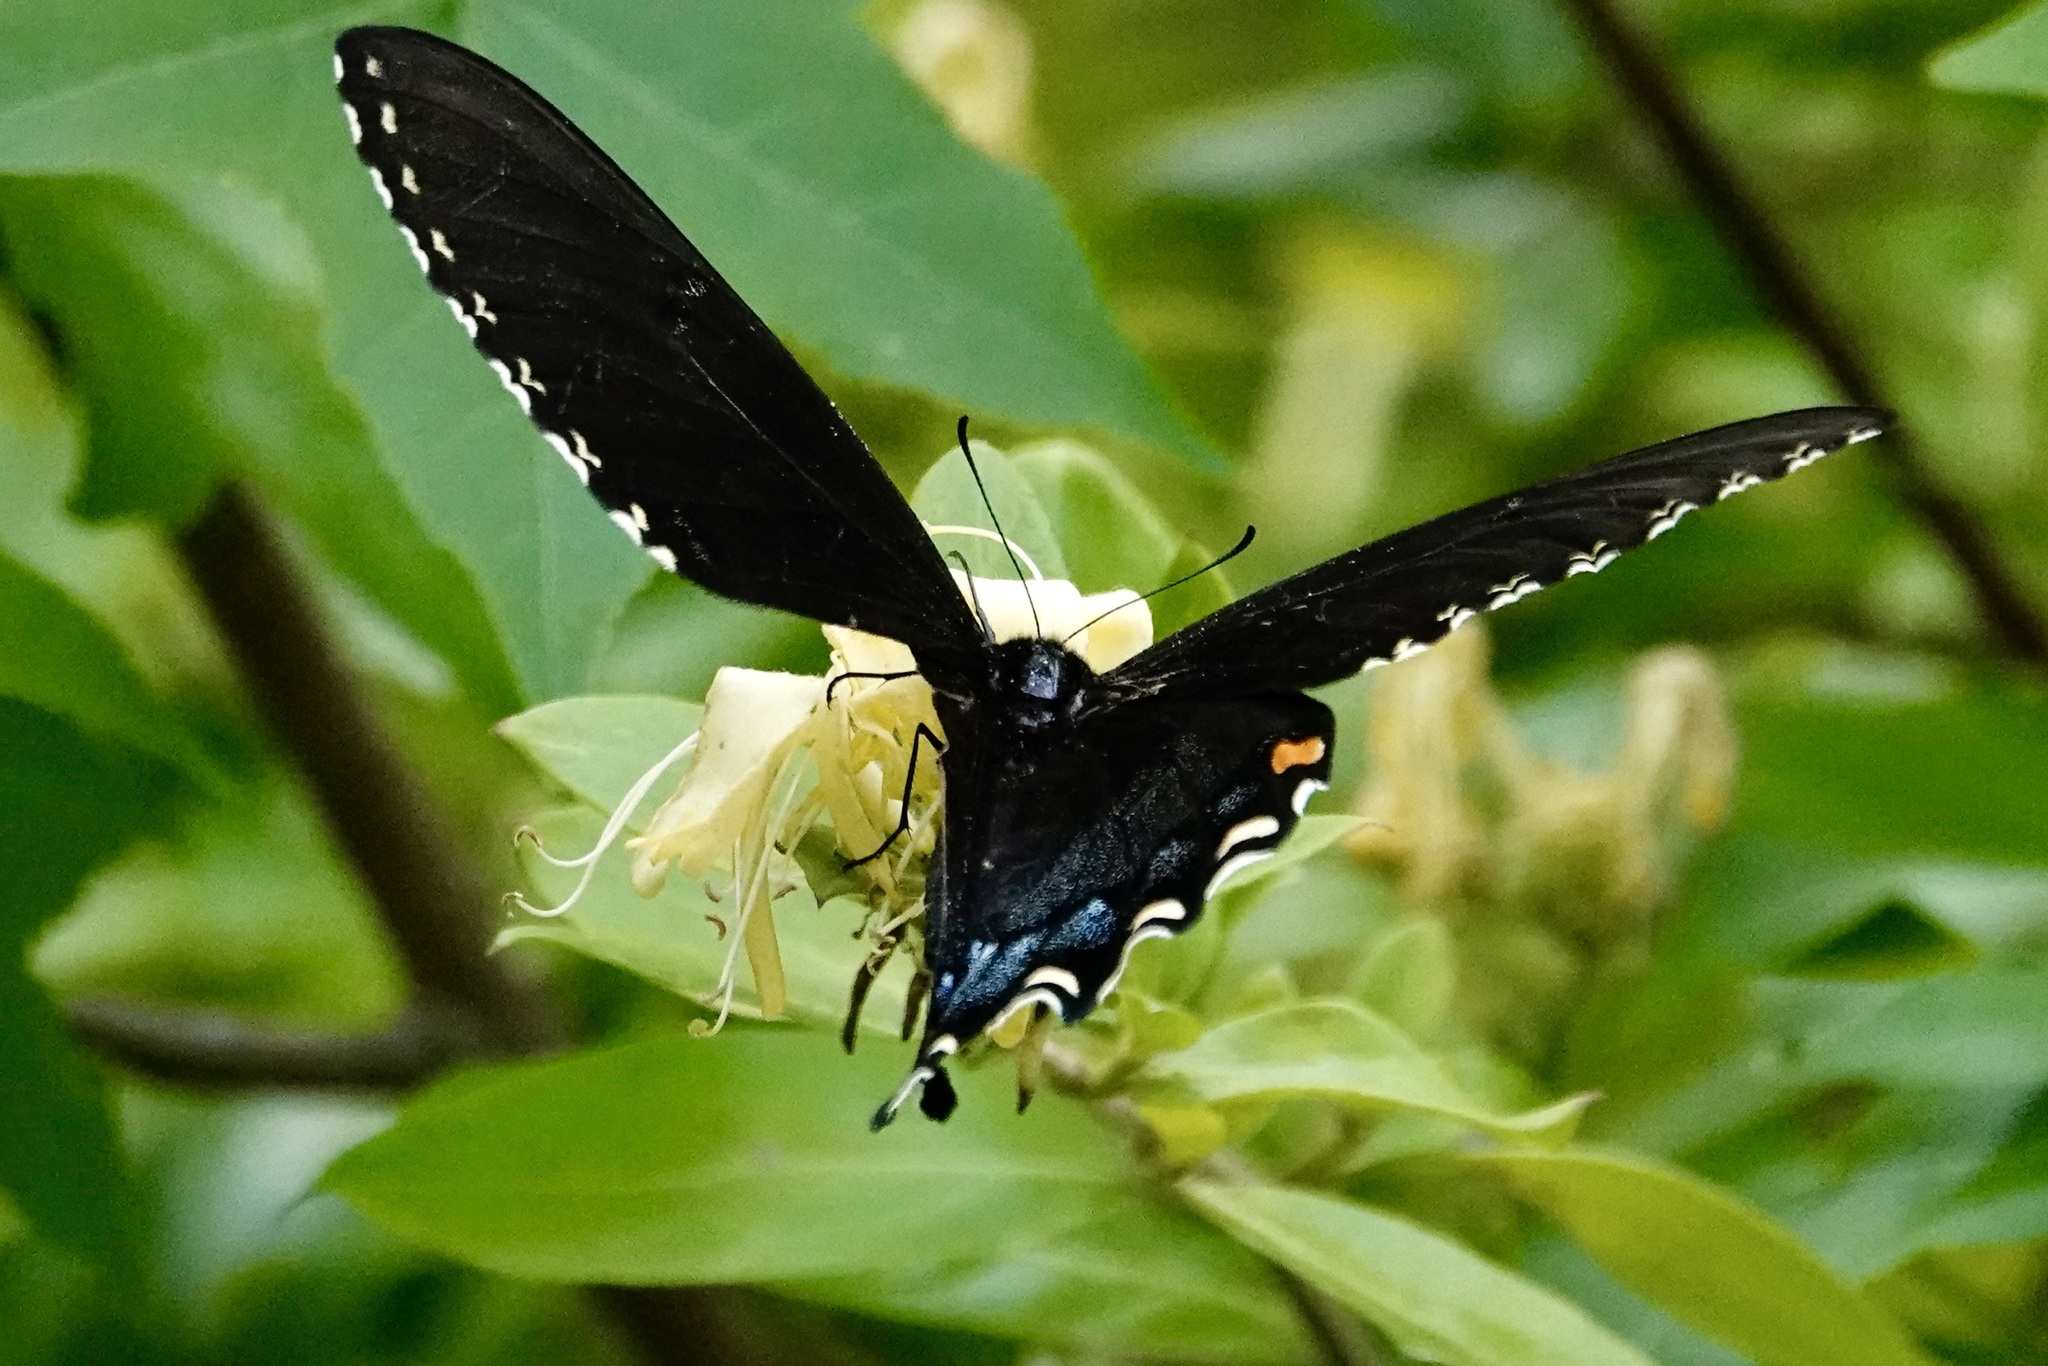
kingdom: Animalia
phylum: Arthropoda
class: Insecta
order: Lepidoptera
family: Papilionidae
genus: Papilio
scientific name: Papilio glaucus
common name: Tiger swallowtail
